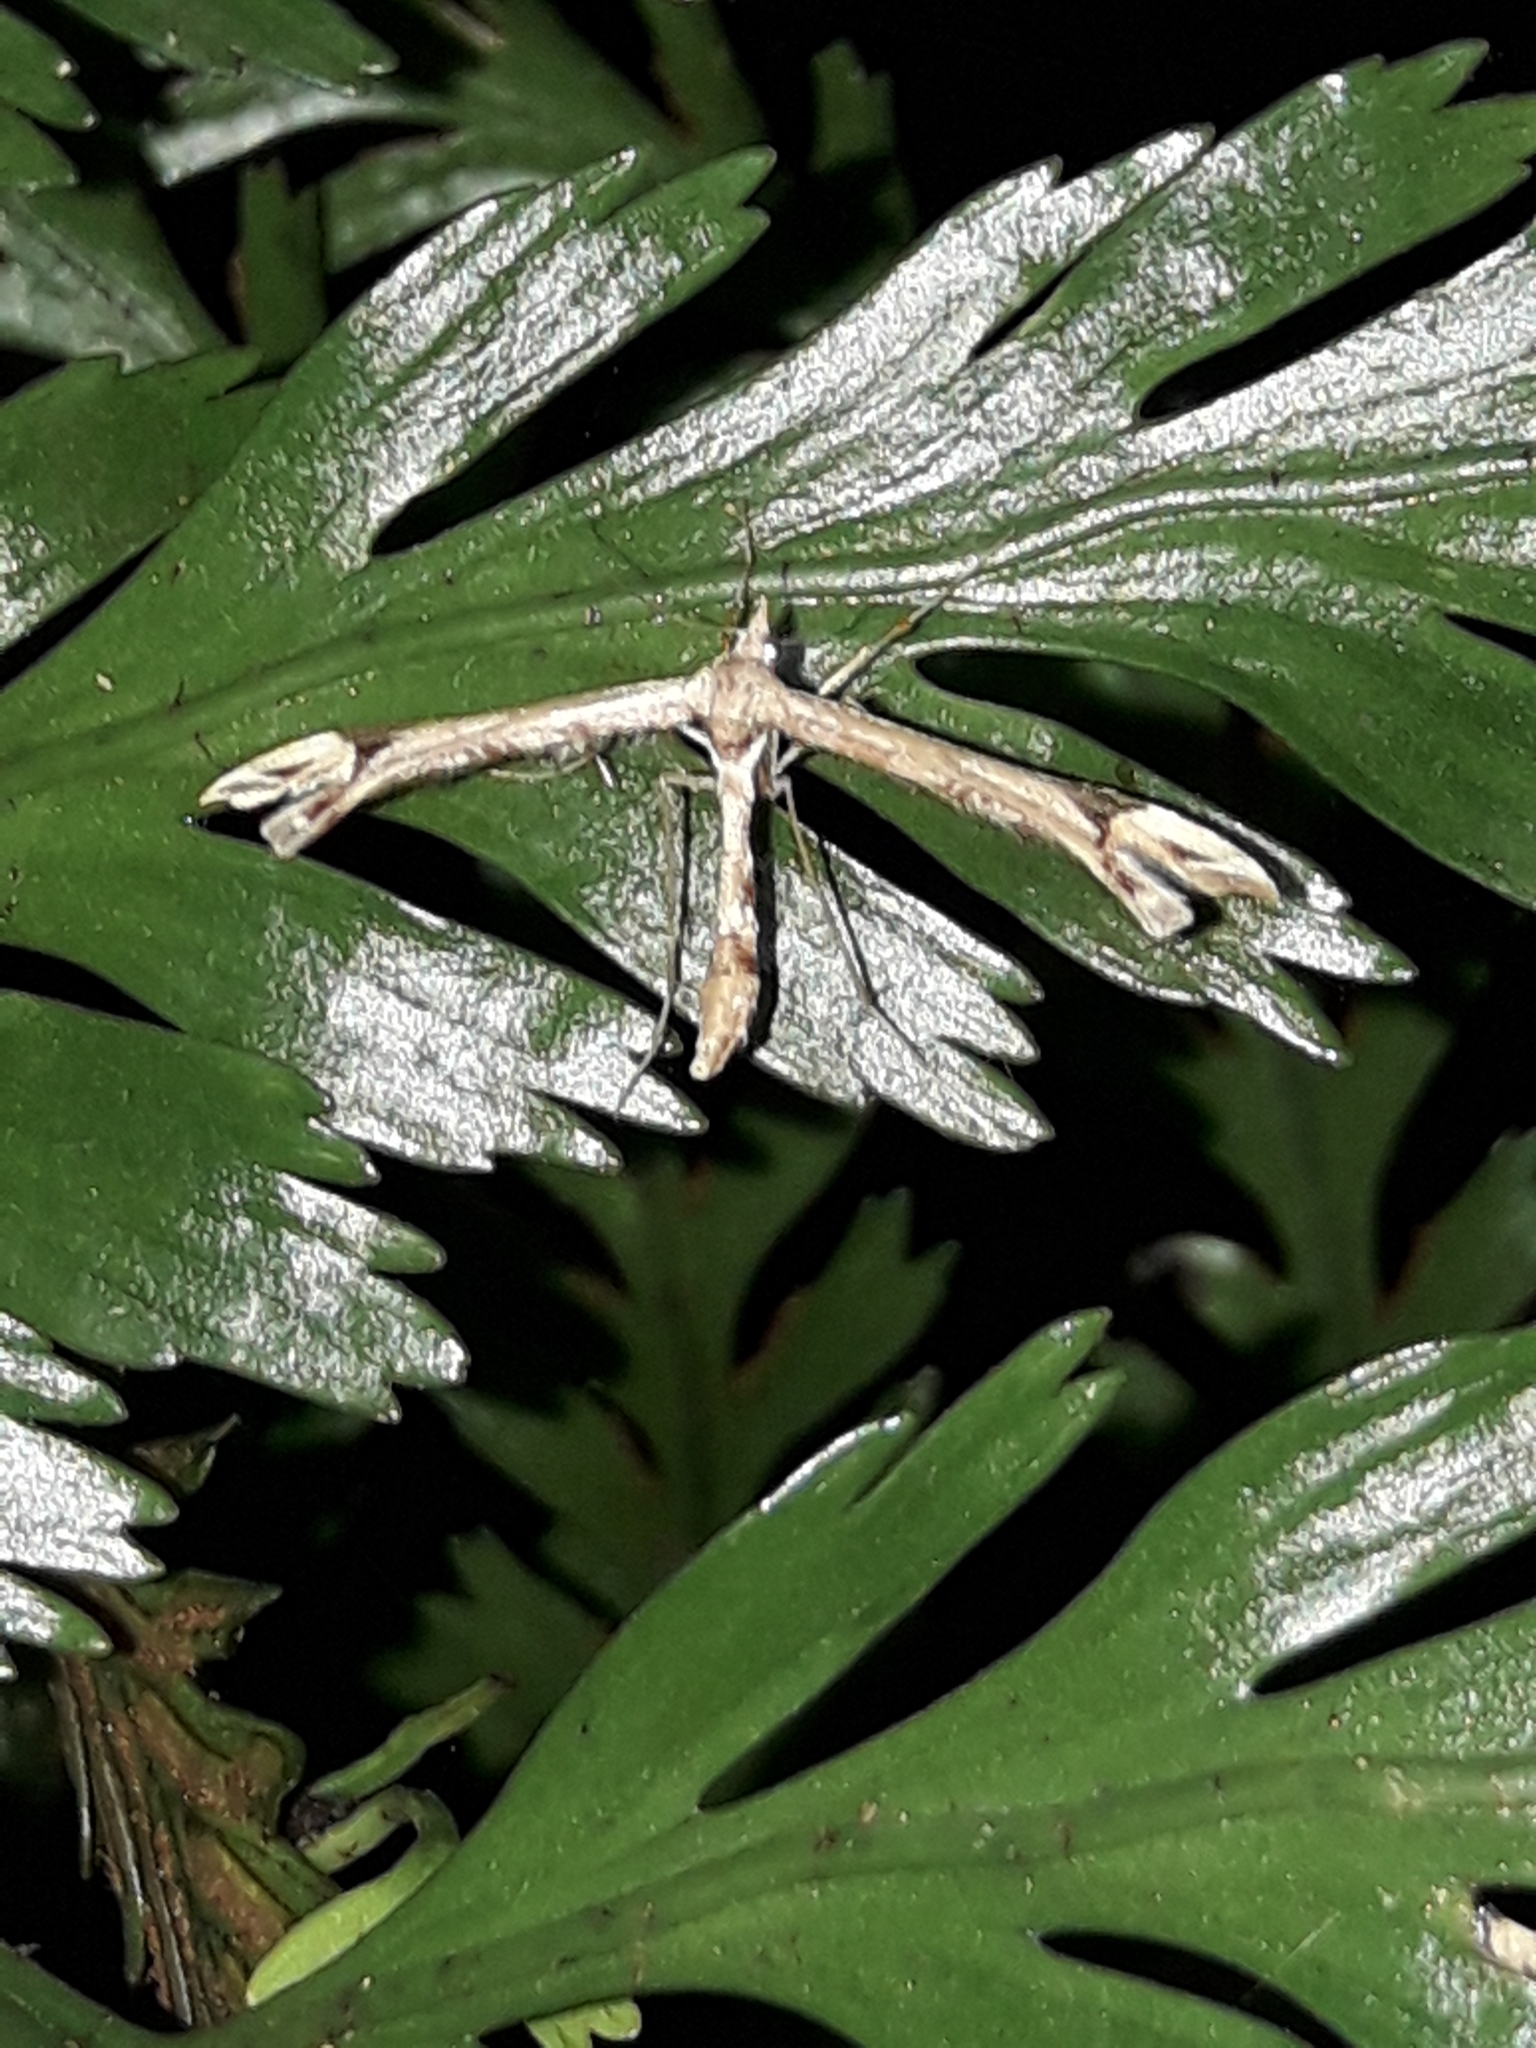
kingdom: Animalia
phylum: Arthropoda
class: Insecta
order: Lepidoptera
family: Pterophoridae
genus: Amblyptilia
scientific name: Amblyptilia falcatalis
